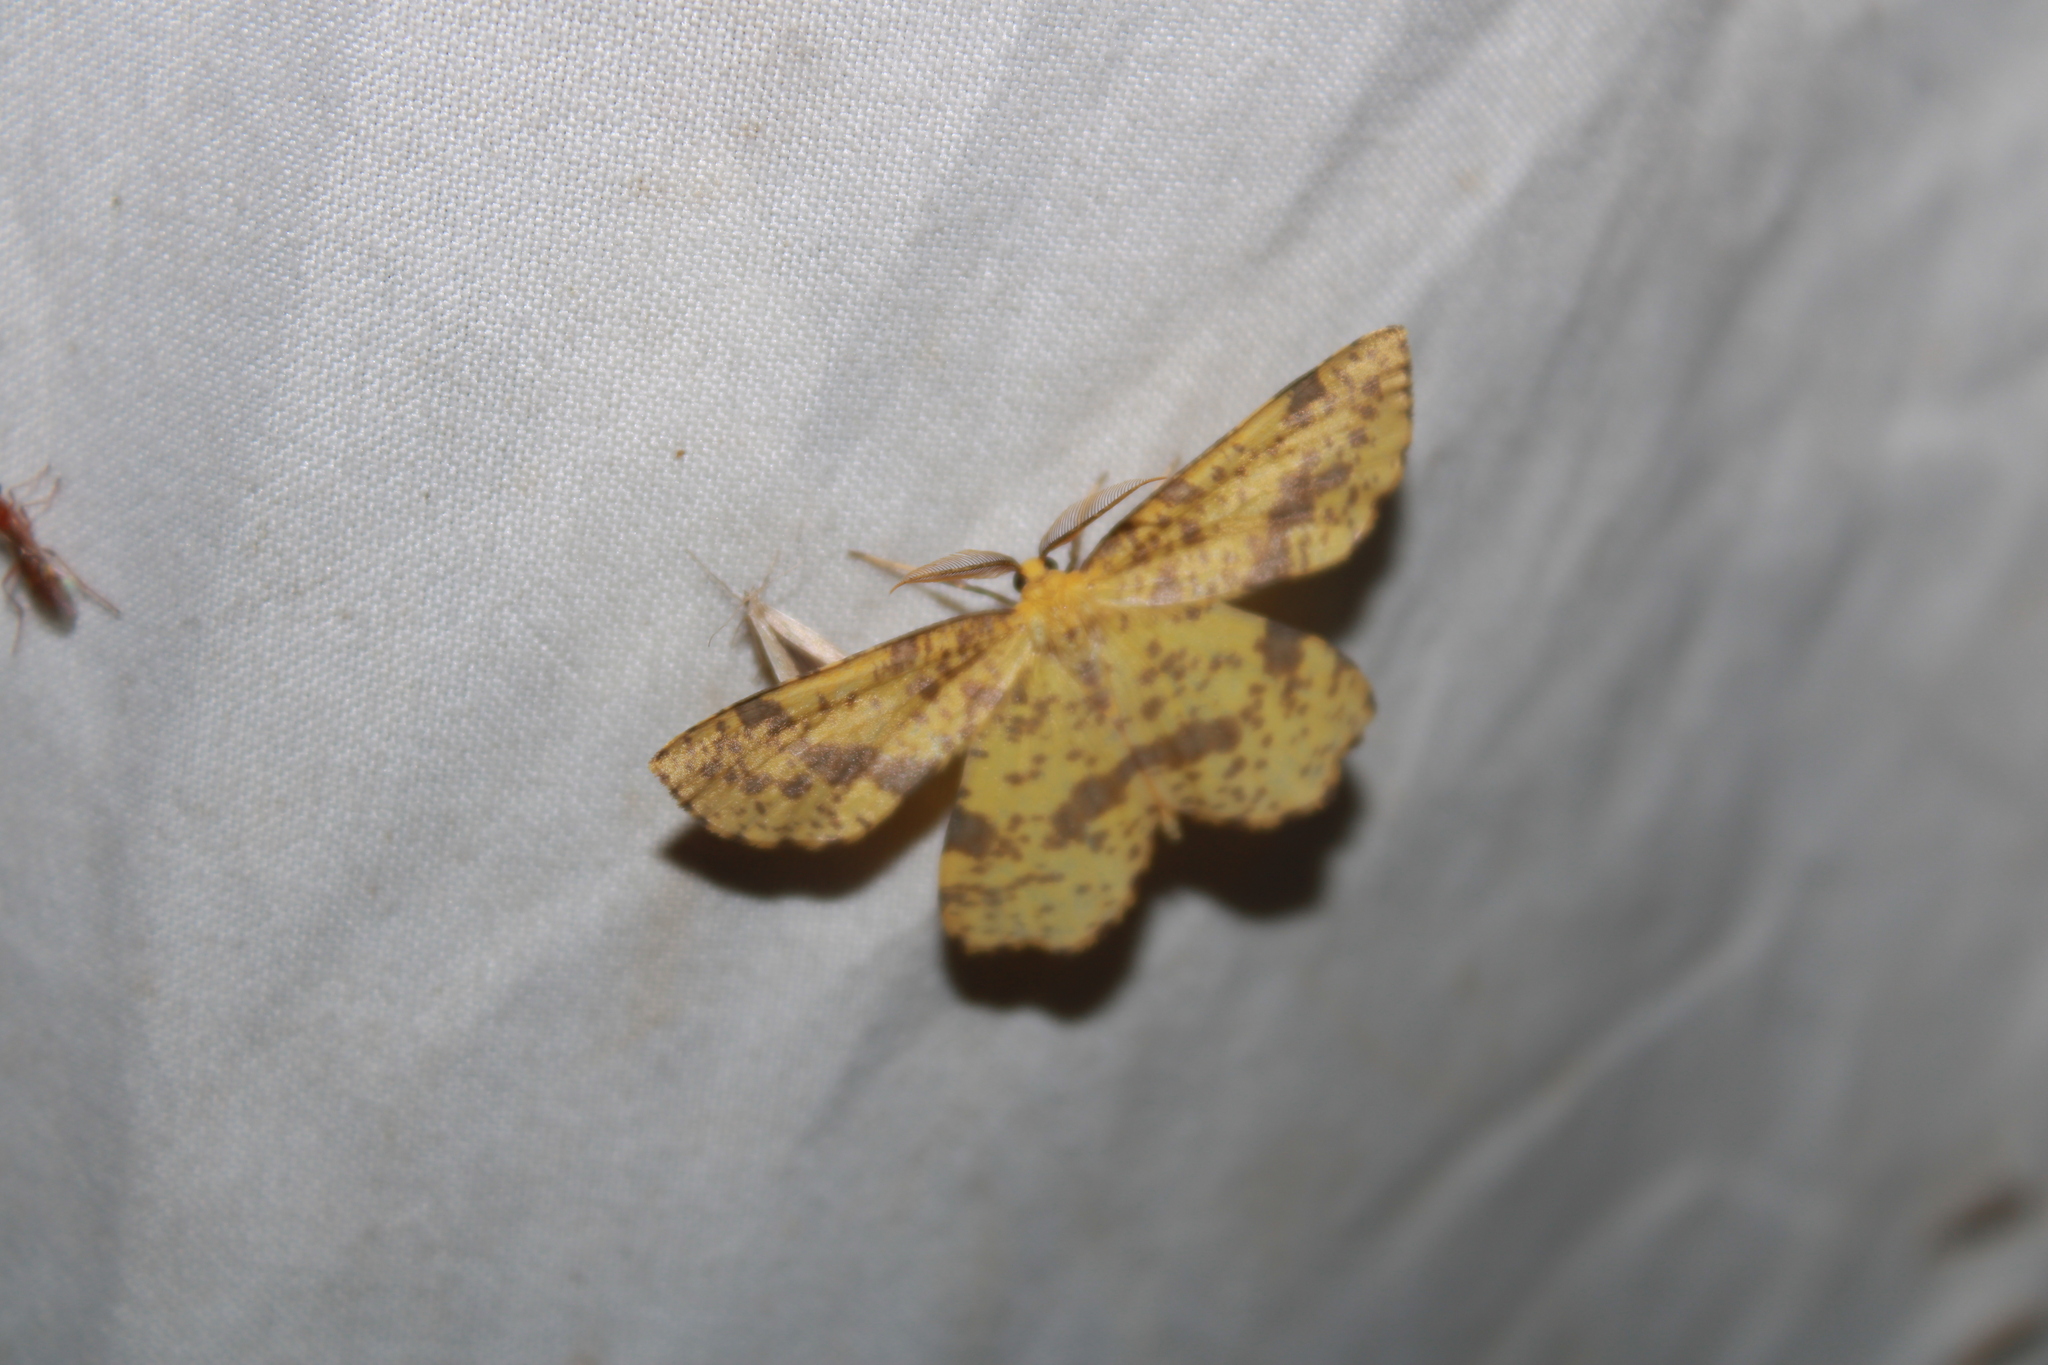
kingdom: Animalia
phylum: Arthropoda
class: Insecta
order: Lepidoptera
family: Geometridae
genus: Xanthotype
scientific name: Xanthotype
